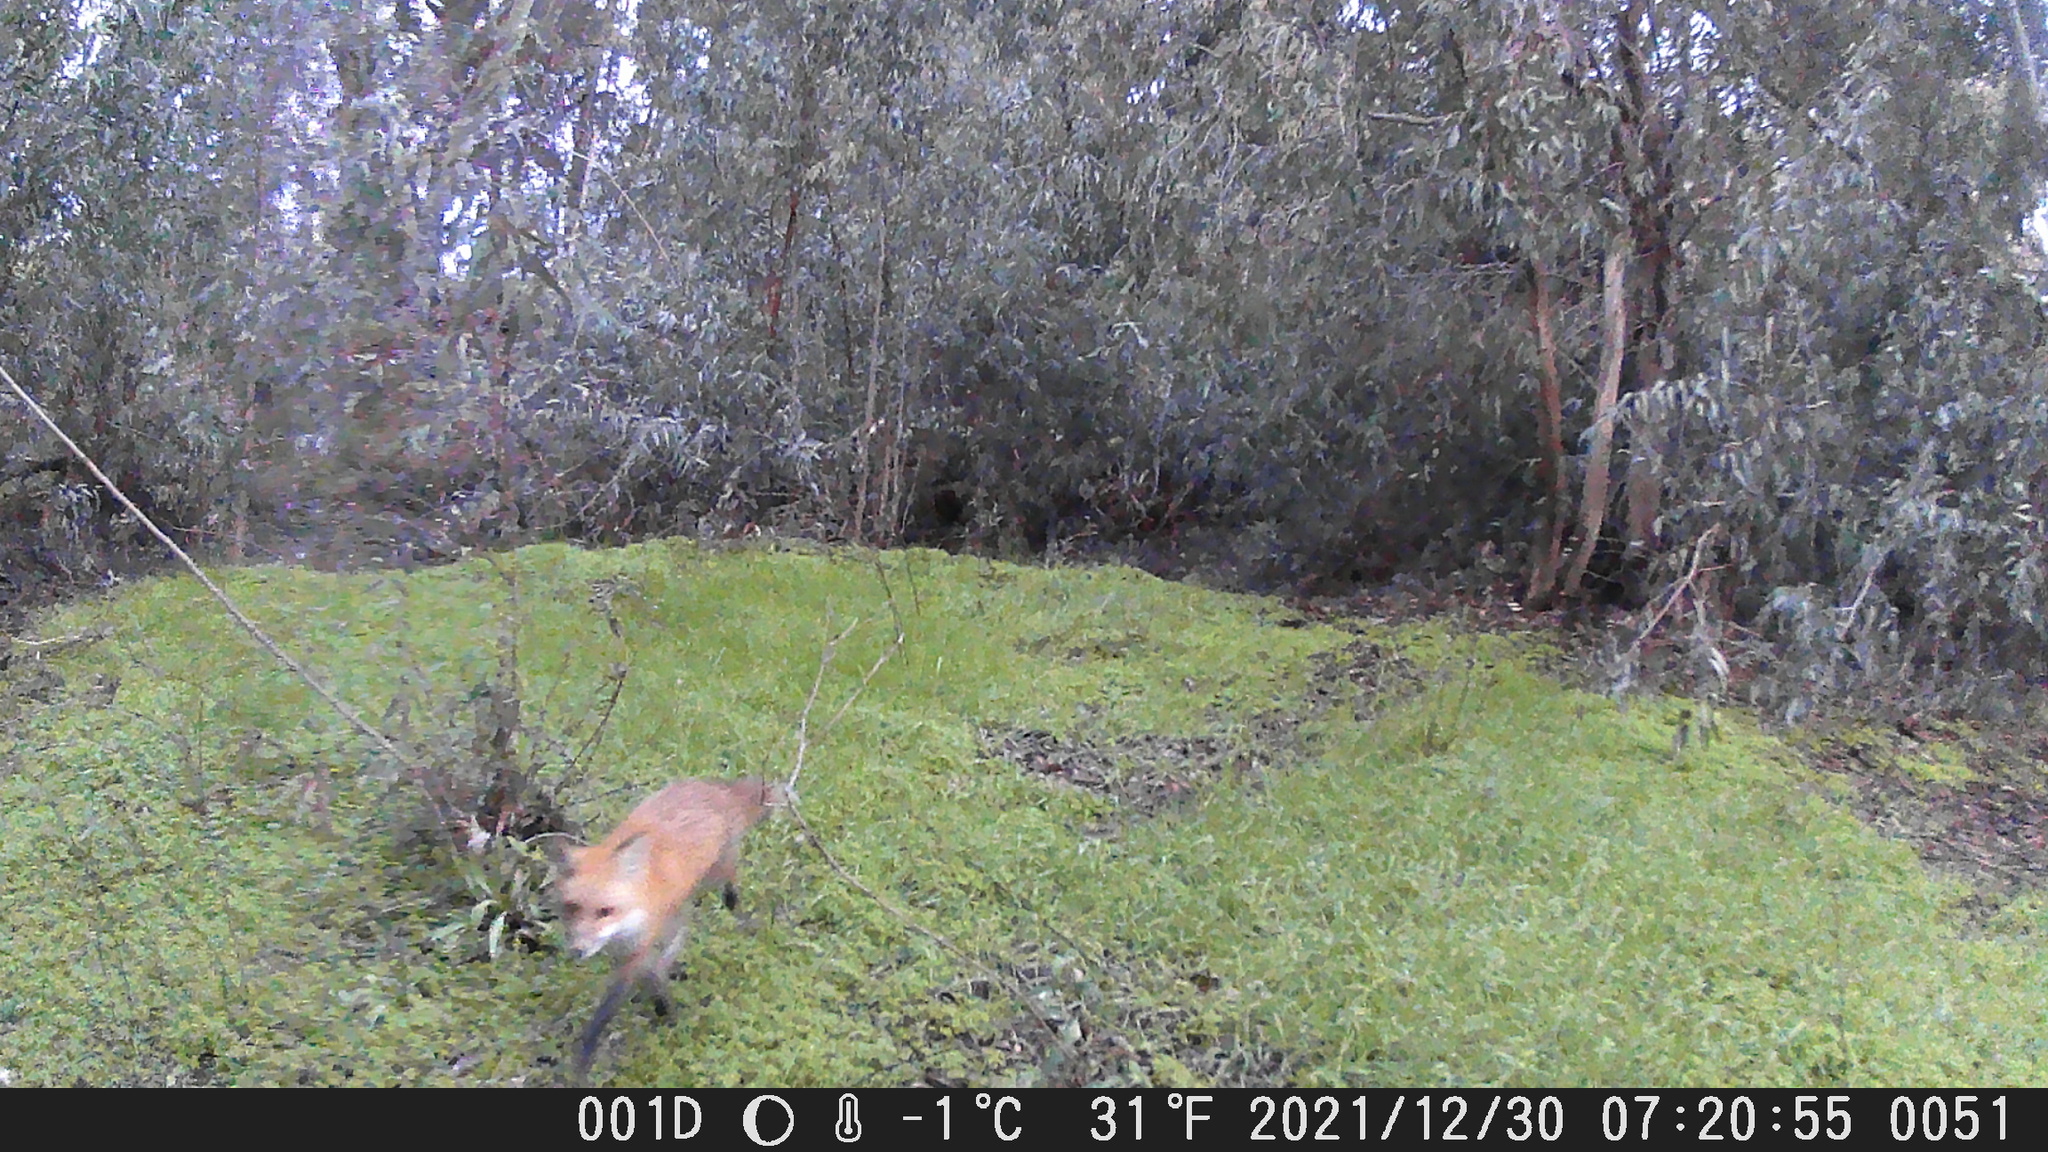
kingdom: Animalia
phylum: Chordata
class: Mammalia
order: Carnivora
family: Canidae
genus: Vulpes
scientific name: Vulpes vulpes
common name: Red fox
